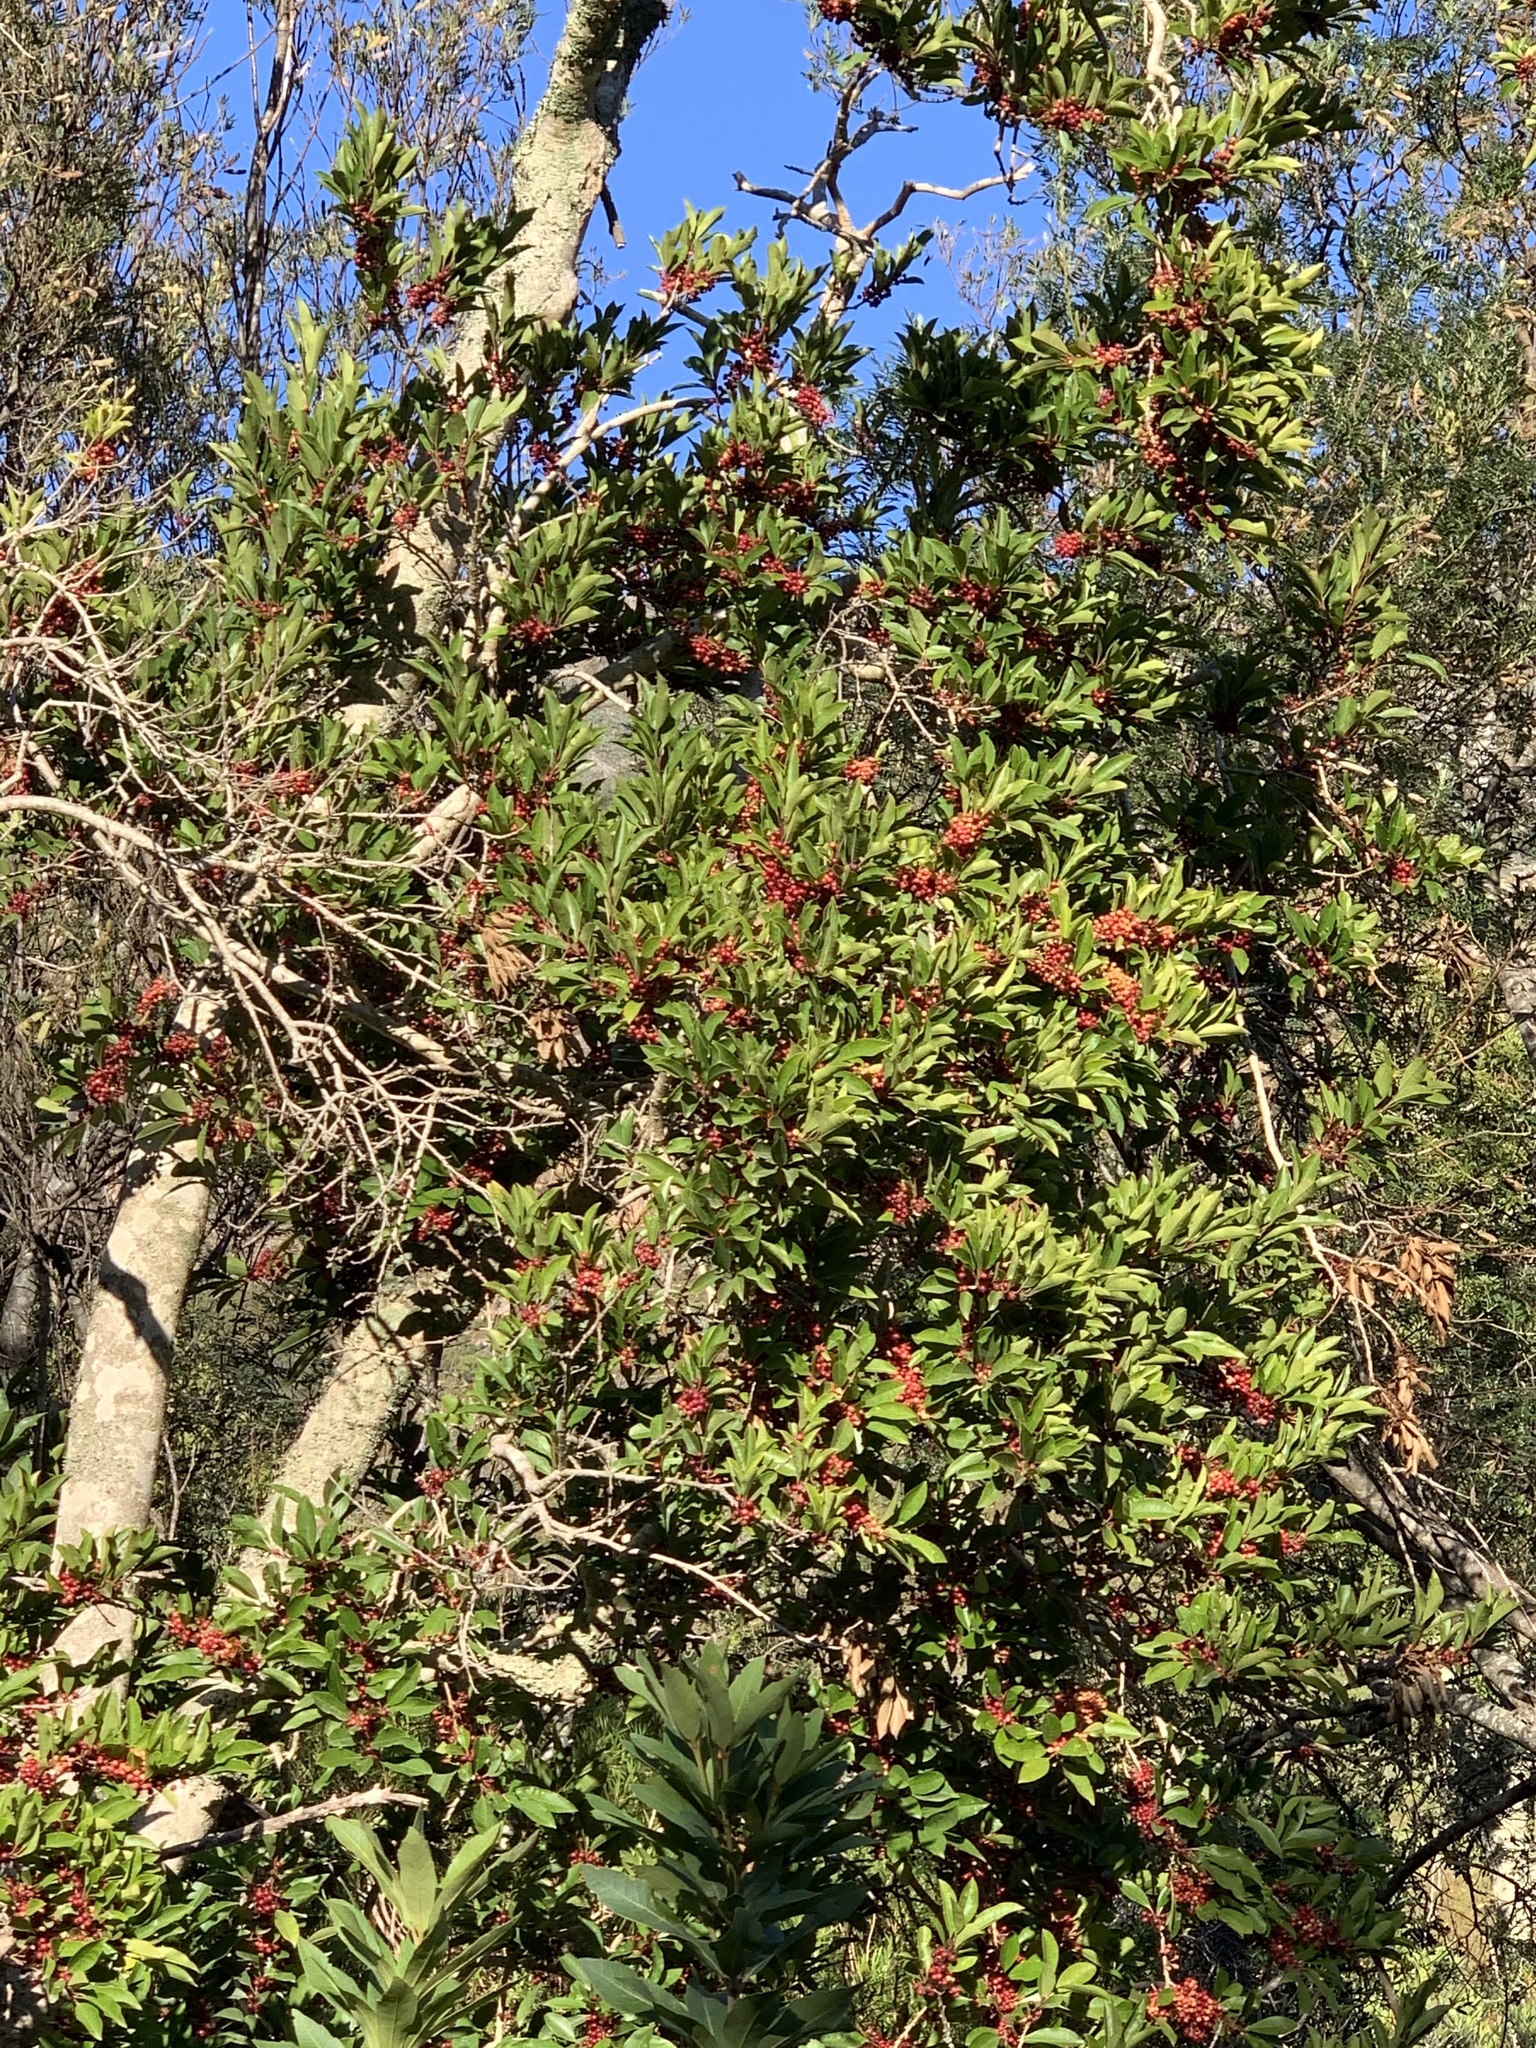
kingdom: Plantae
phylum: Tracheophyta
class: Magnoliopsida
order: Aquifoliales
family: Aquifoliaceae
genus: Ilex
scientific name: Ilex mitis
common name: African holly
